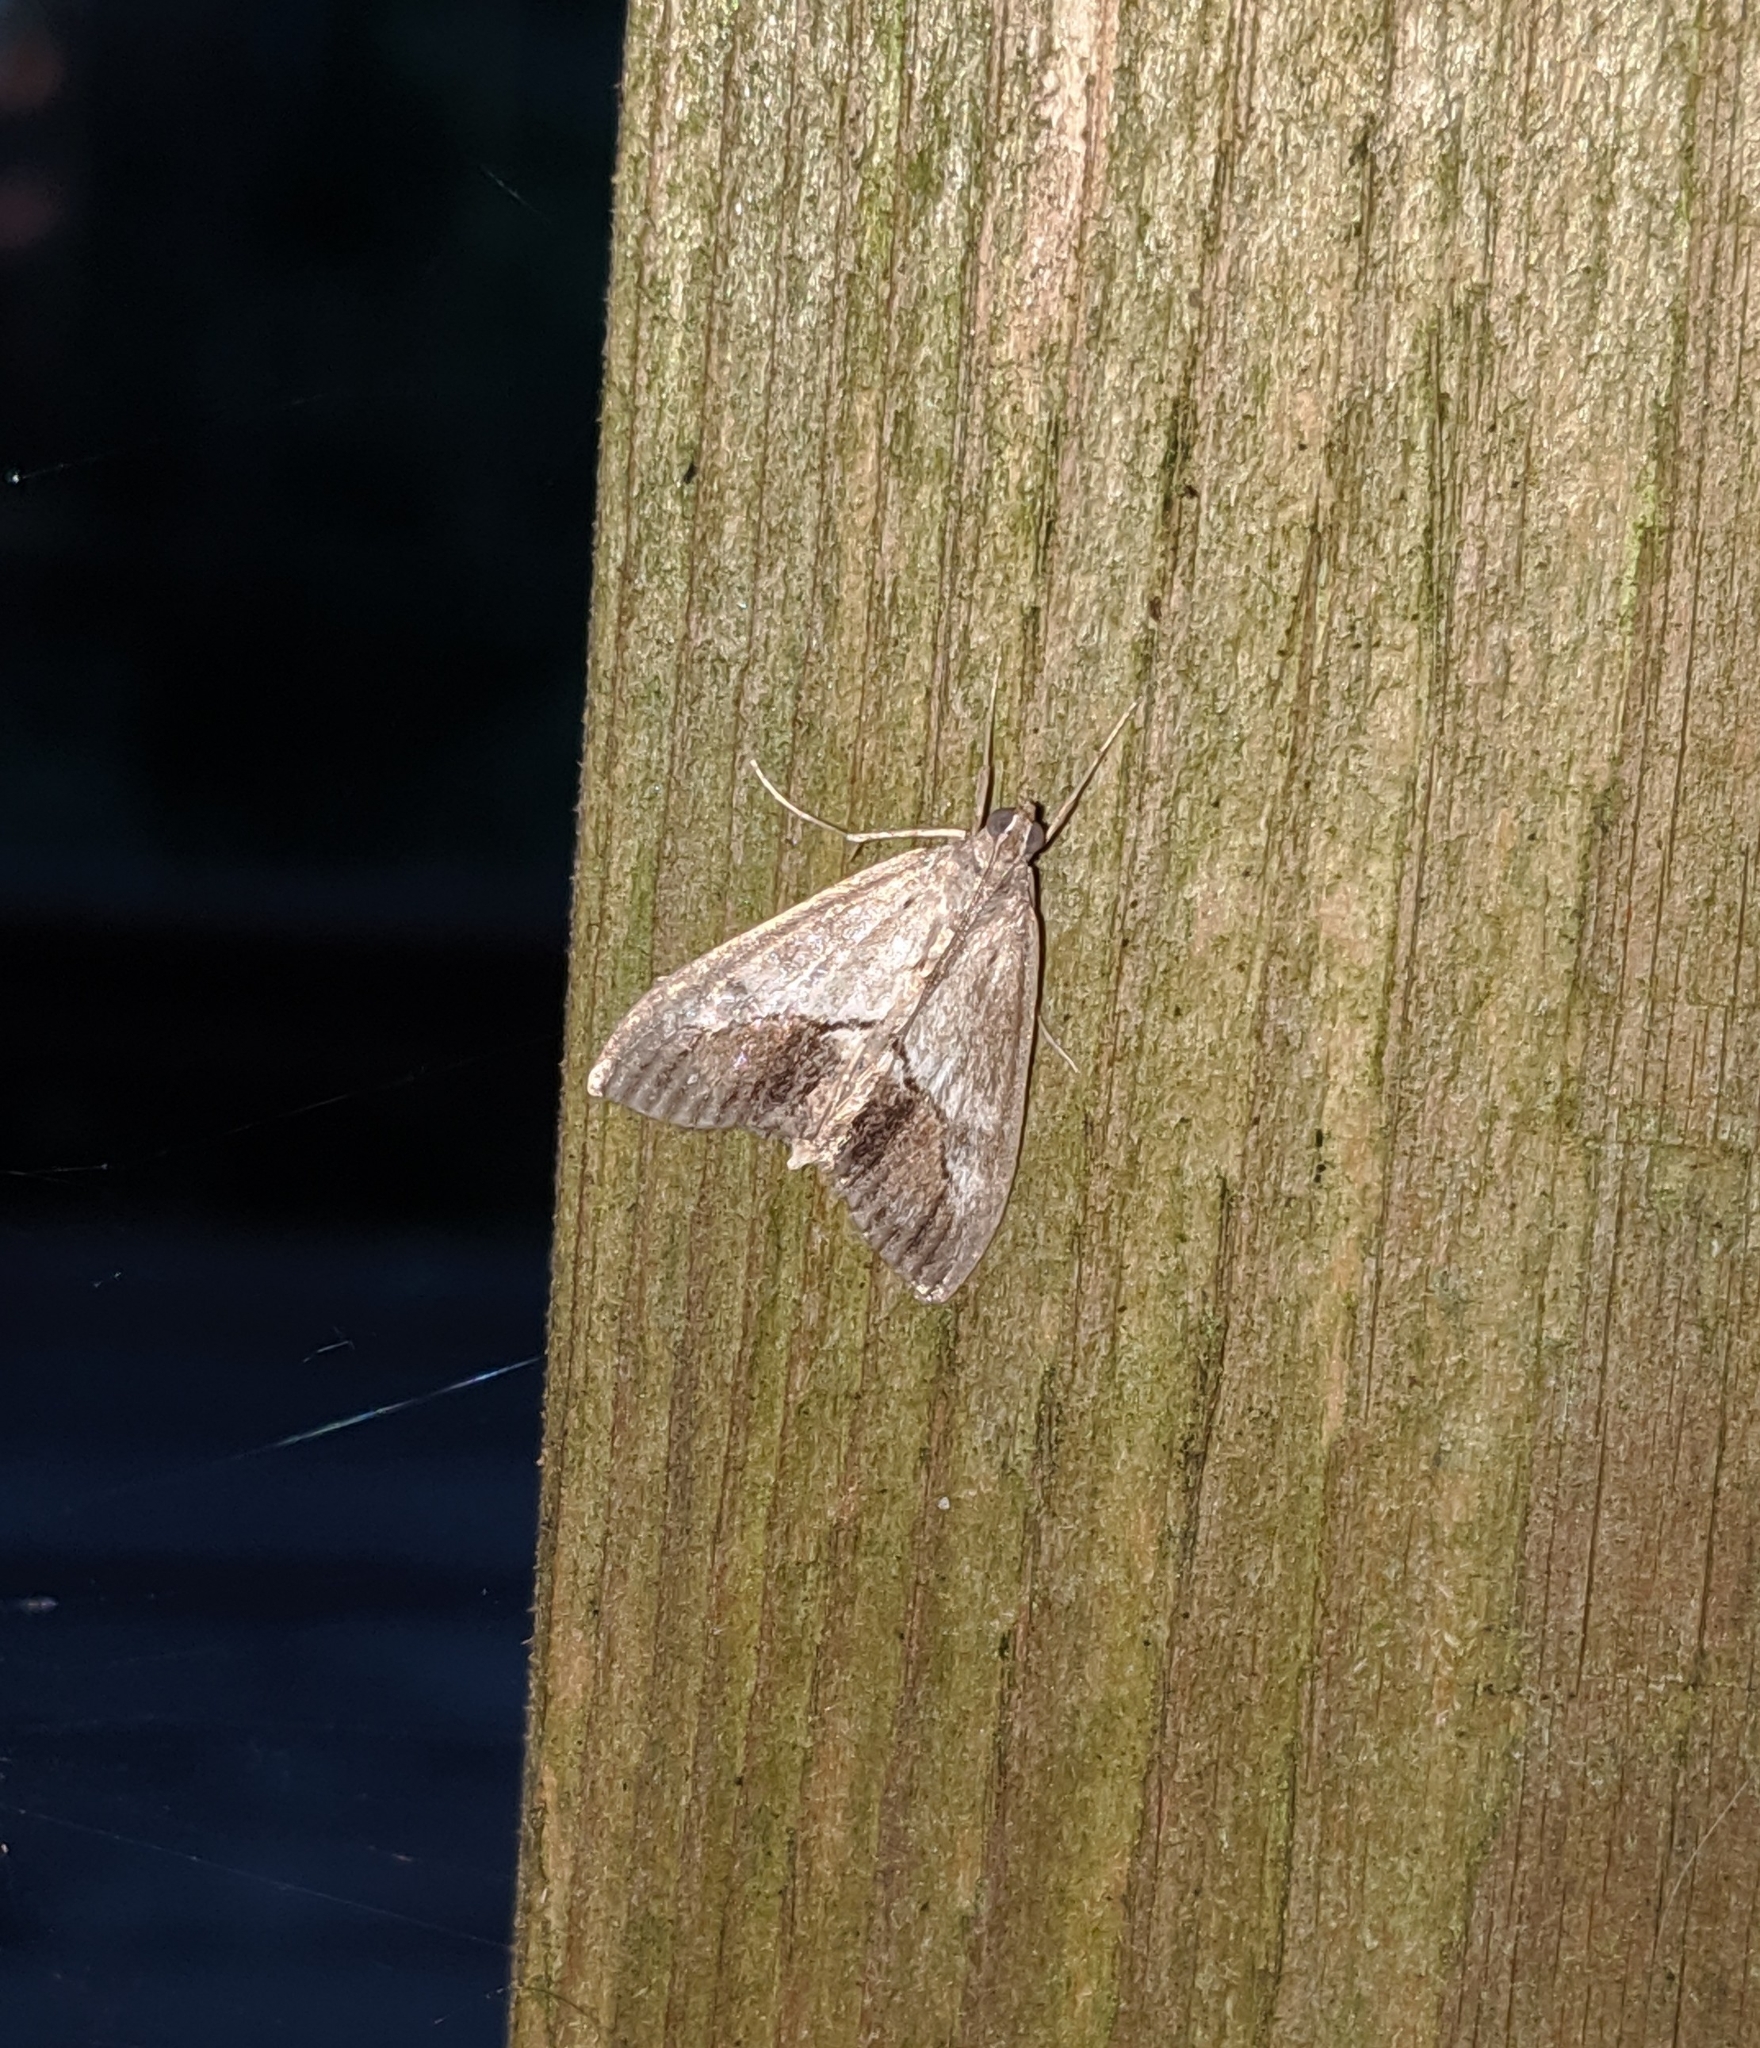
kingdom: Animalia
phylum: Arthropoda
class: Insecta
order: Lepidoptera
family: Crambidae
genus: Evergestis
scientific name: Evergestis funalis
